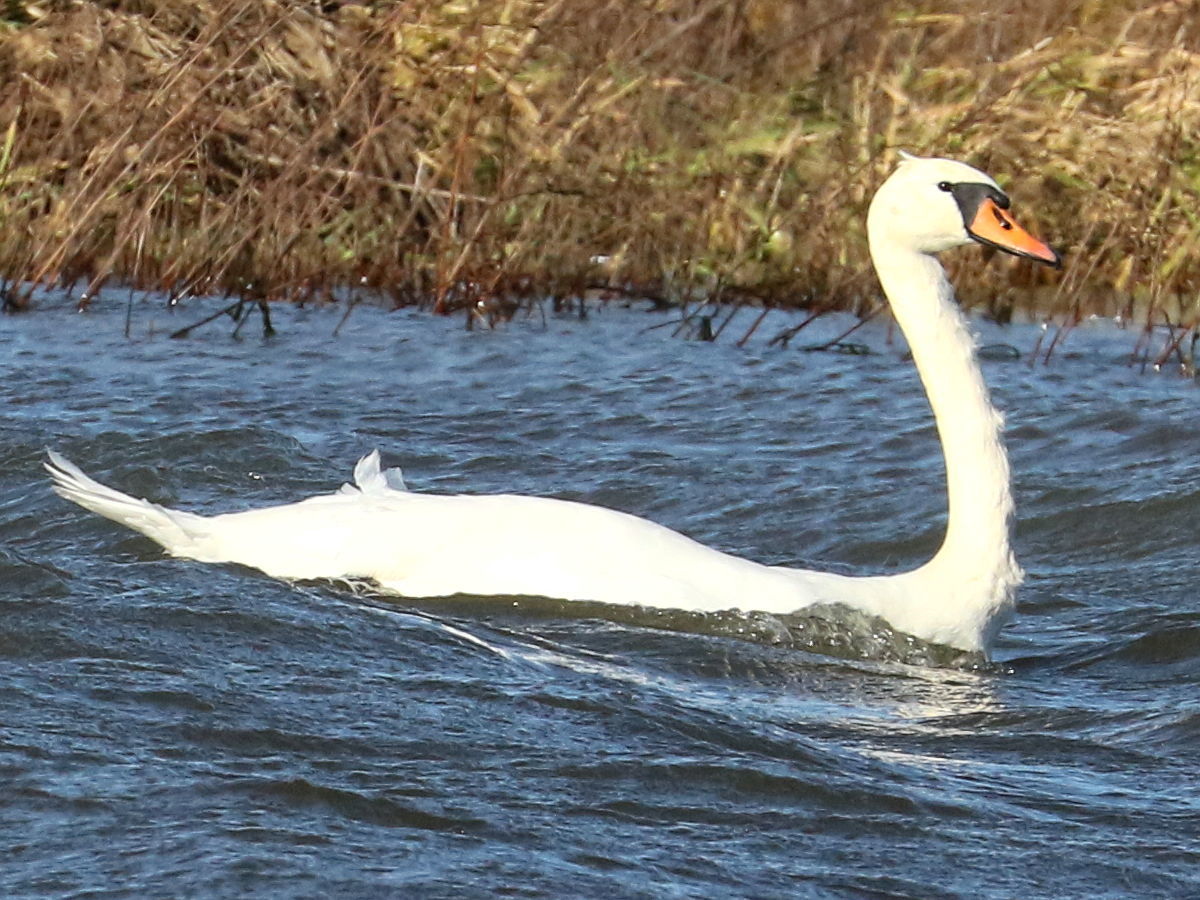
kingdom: Animalia
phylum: Chordata
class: Aves
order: Anseriformes
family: Anatidae
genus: Cygnus
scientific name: Cygnus olor
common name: Mute swan
